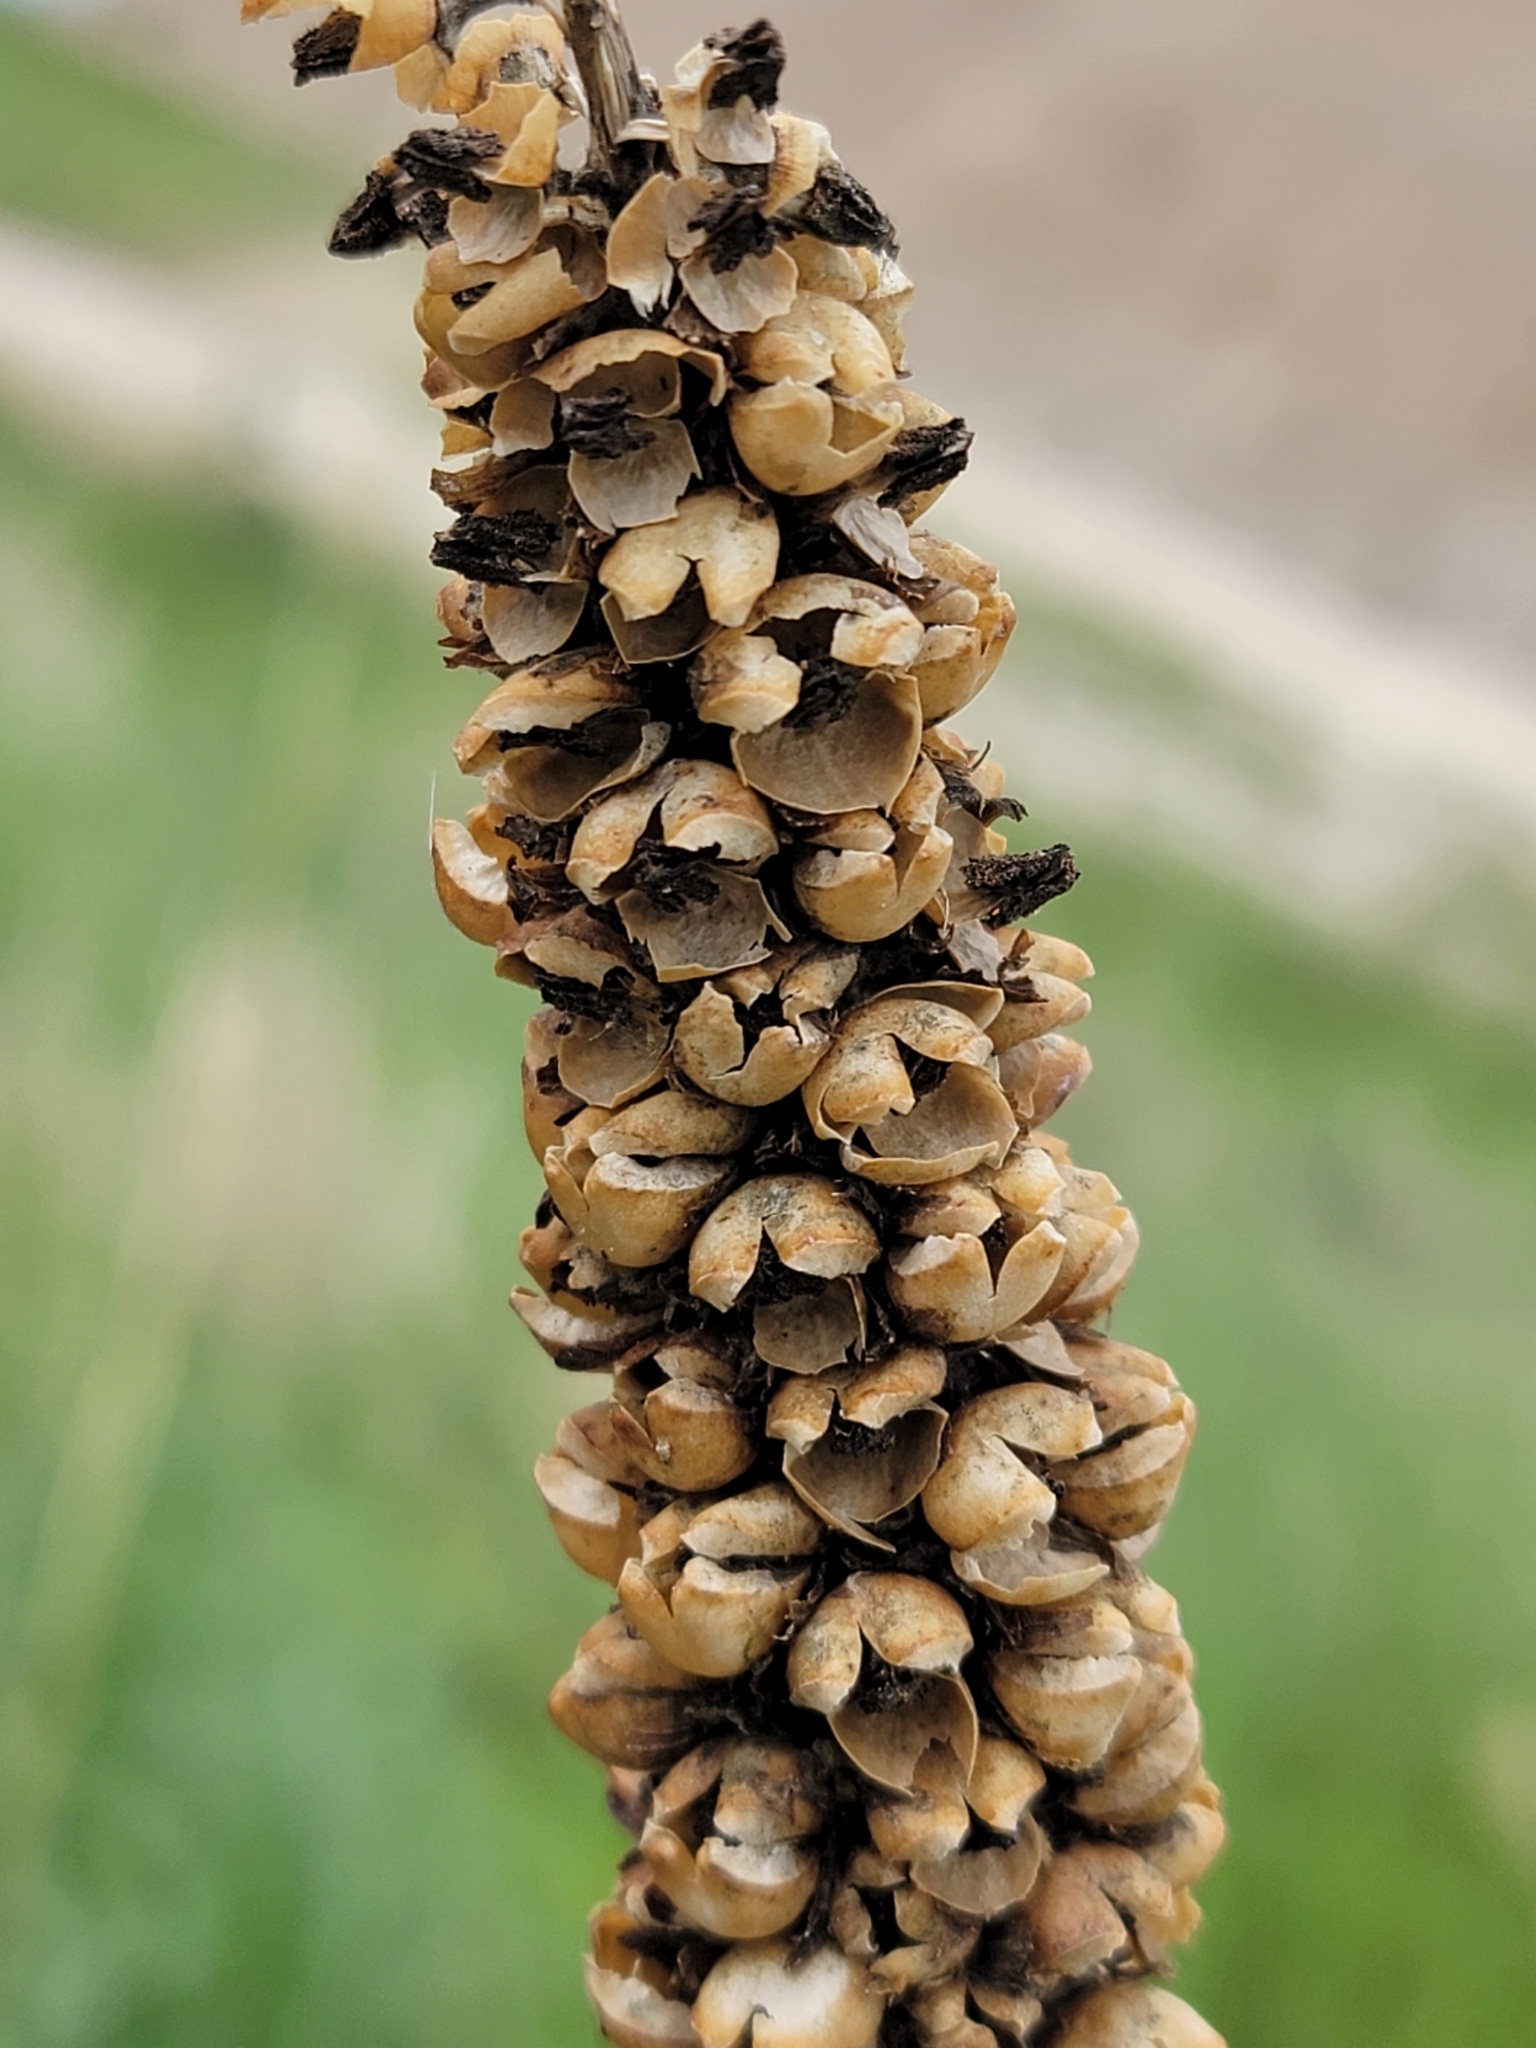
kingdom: Plantae
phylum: Tracheophyta
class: Magnoliopsida
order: Lamiales
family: Scrophulariaceae
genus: Verbascum
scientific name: Verbascum thapsus
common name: Common mullein
